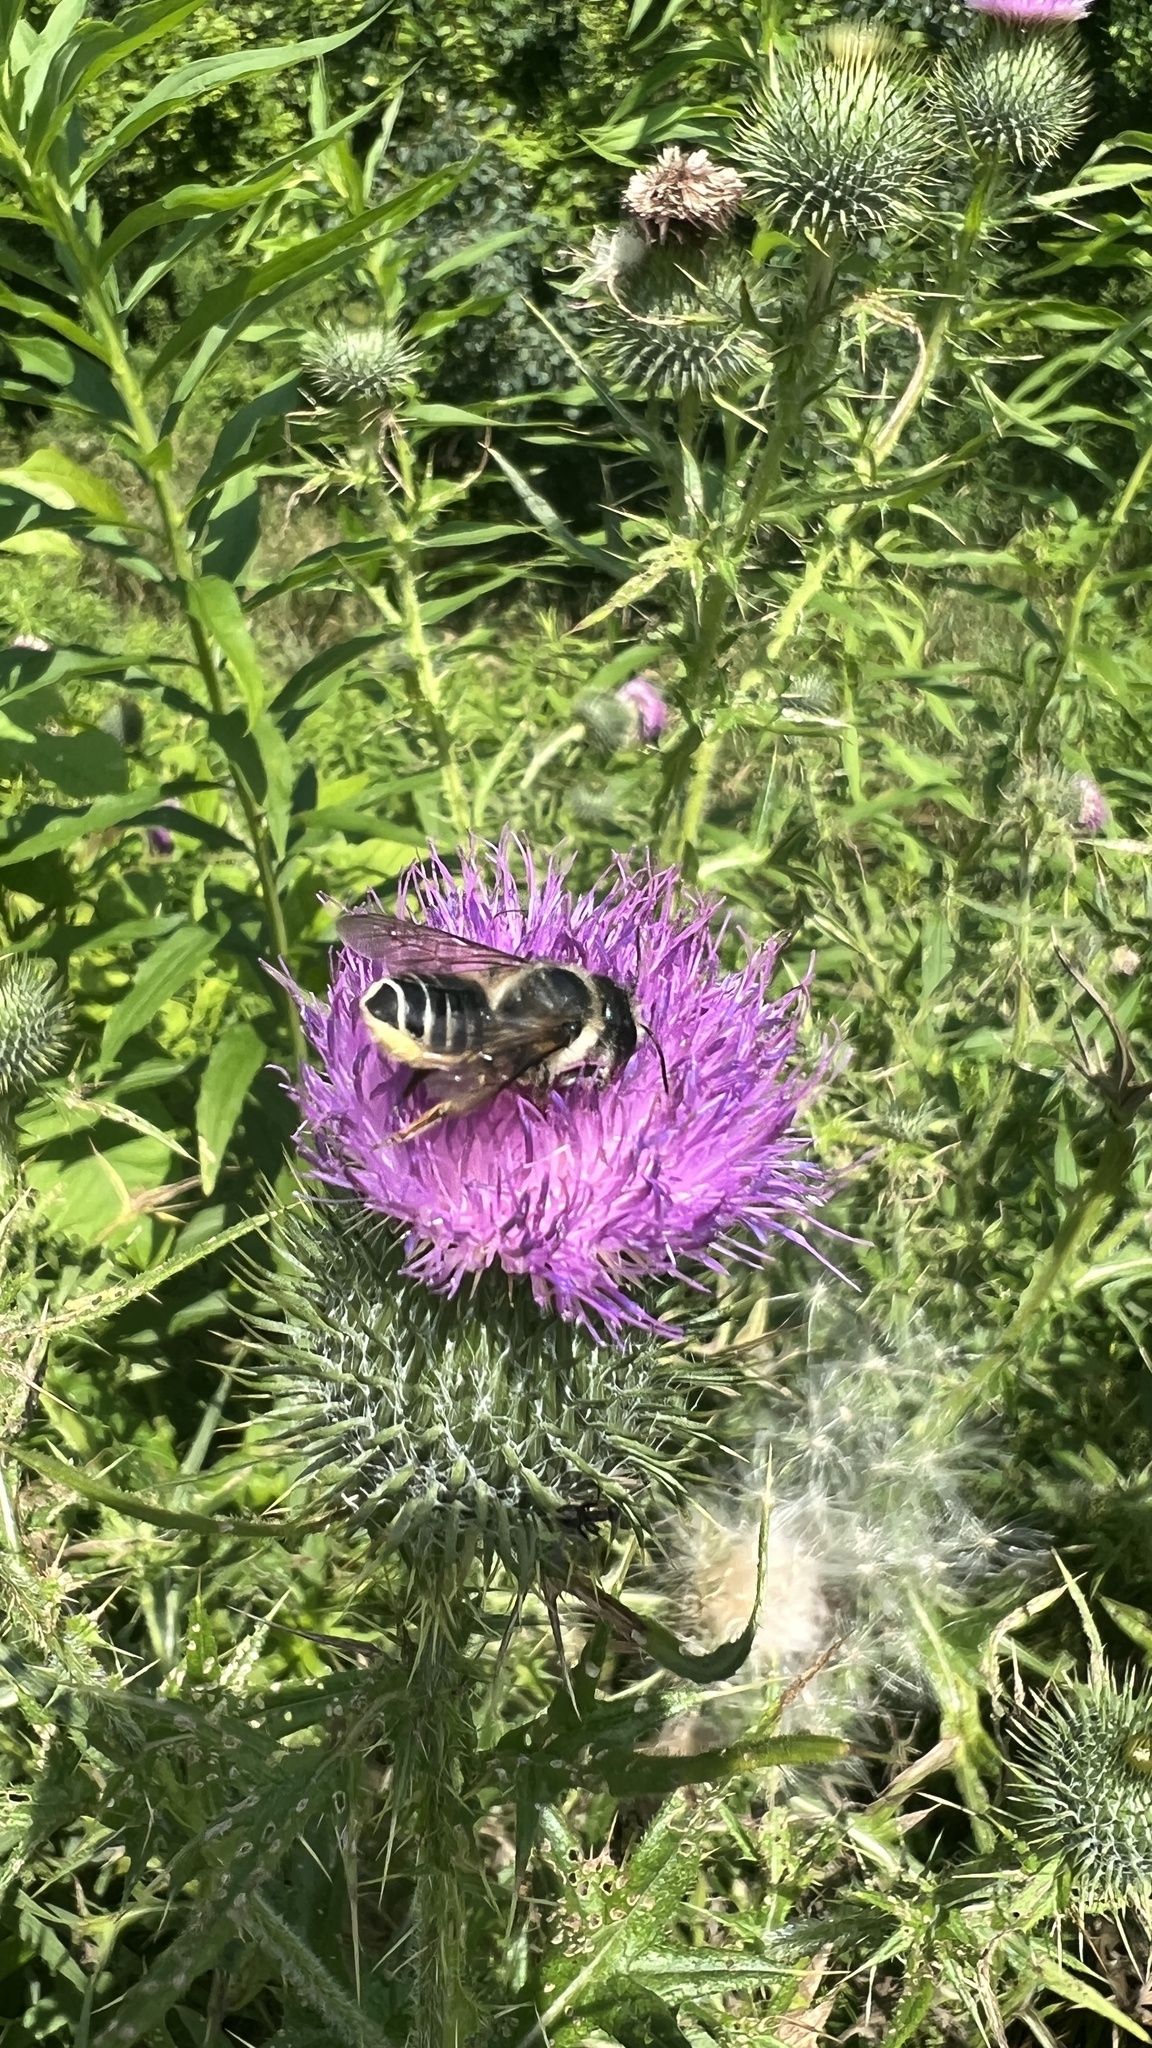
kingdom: Animalia
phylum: Arthropoda
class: Insecta
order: Hymenoptera
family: Megachilidae
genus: Megachile
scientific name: Megachile inermis
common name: Unarmed leafcutter bee
